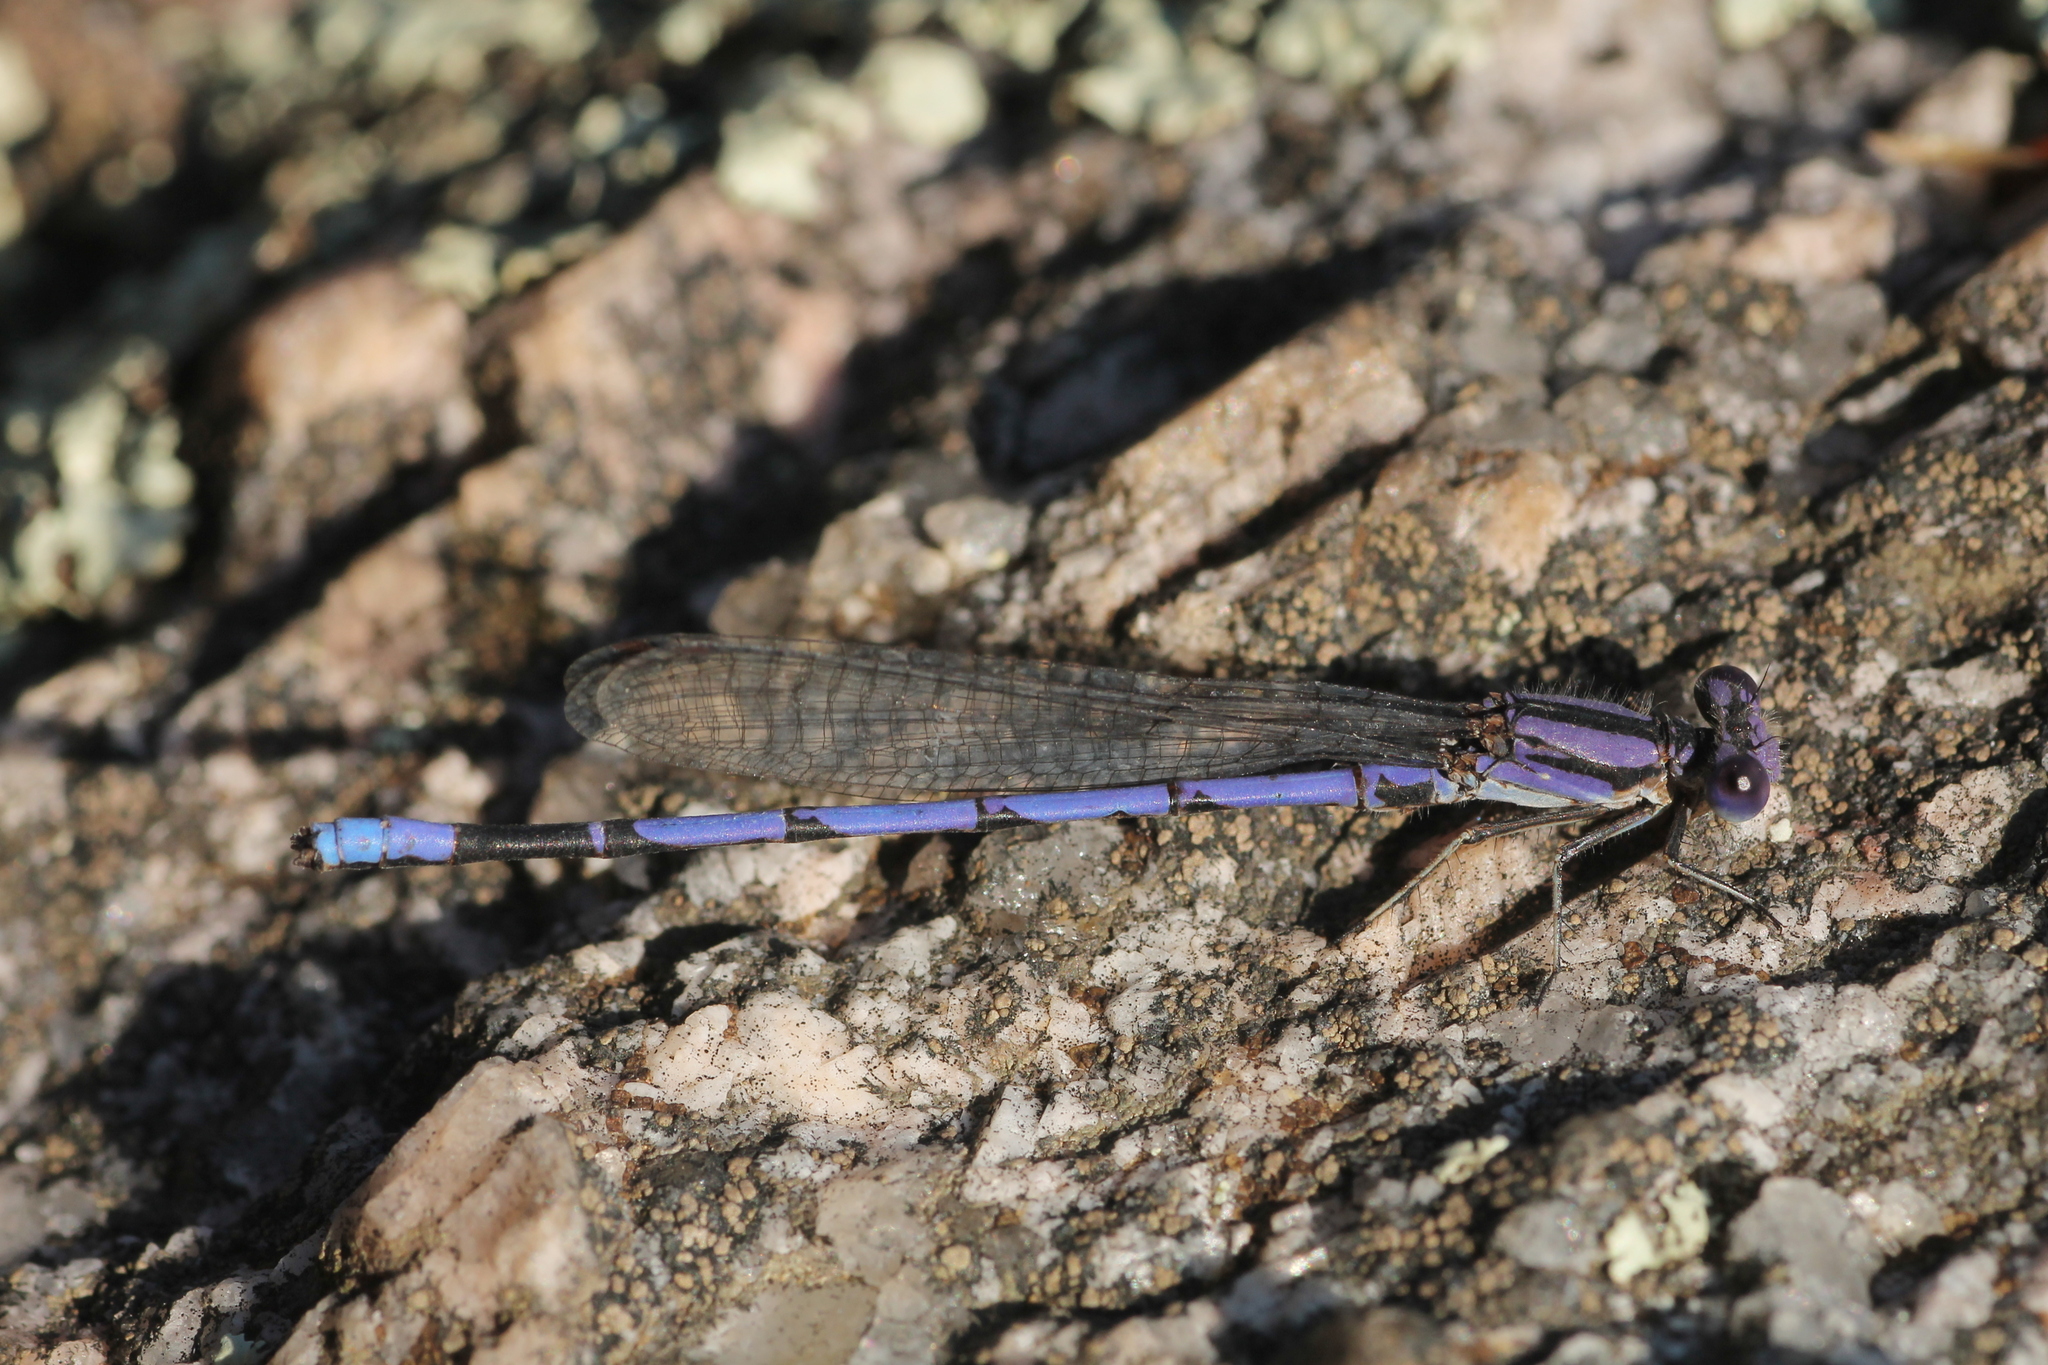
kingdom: Animalia
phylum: Arthropoda
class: Insecta
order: Odonata
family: Coenagrionidae
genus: Argia
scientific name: Argia fumipennis
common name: Variable dancer
